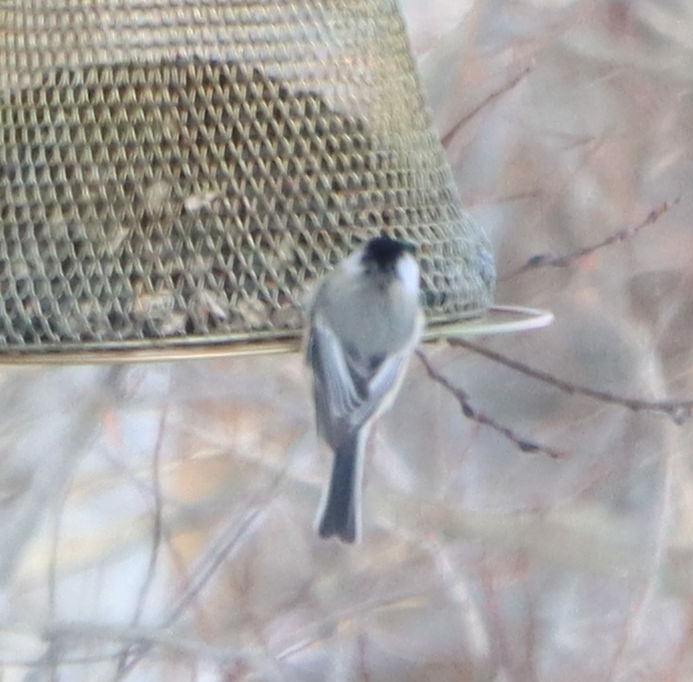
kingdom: Animalia
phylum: Chordata
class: Aves
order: Passeriformes
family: Paridae
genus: Poecile
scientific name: Poecile atricapillus
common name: Black-capped chickadee
